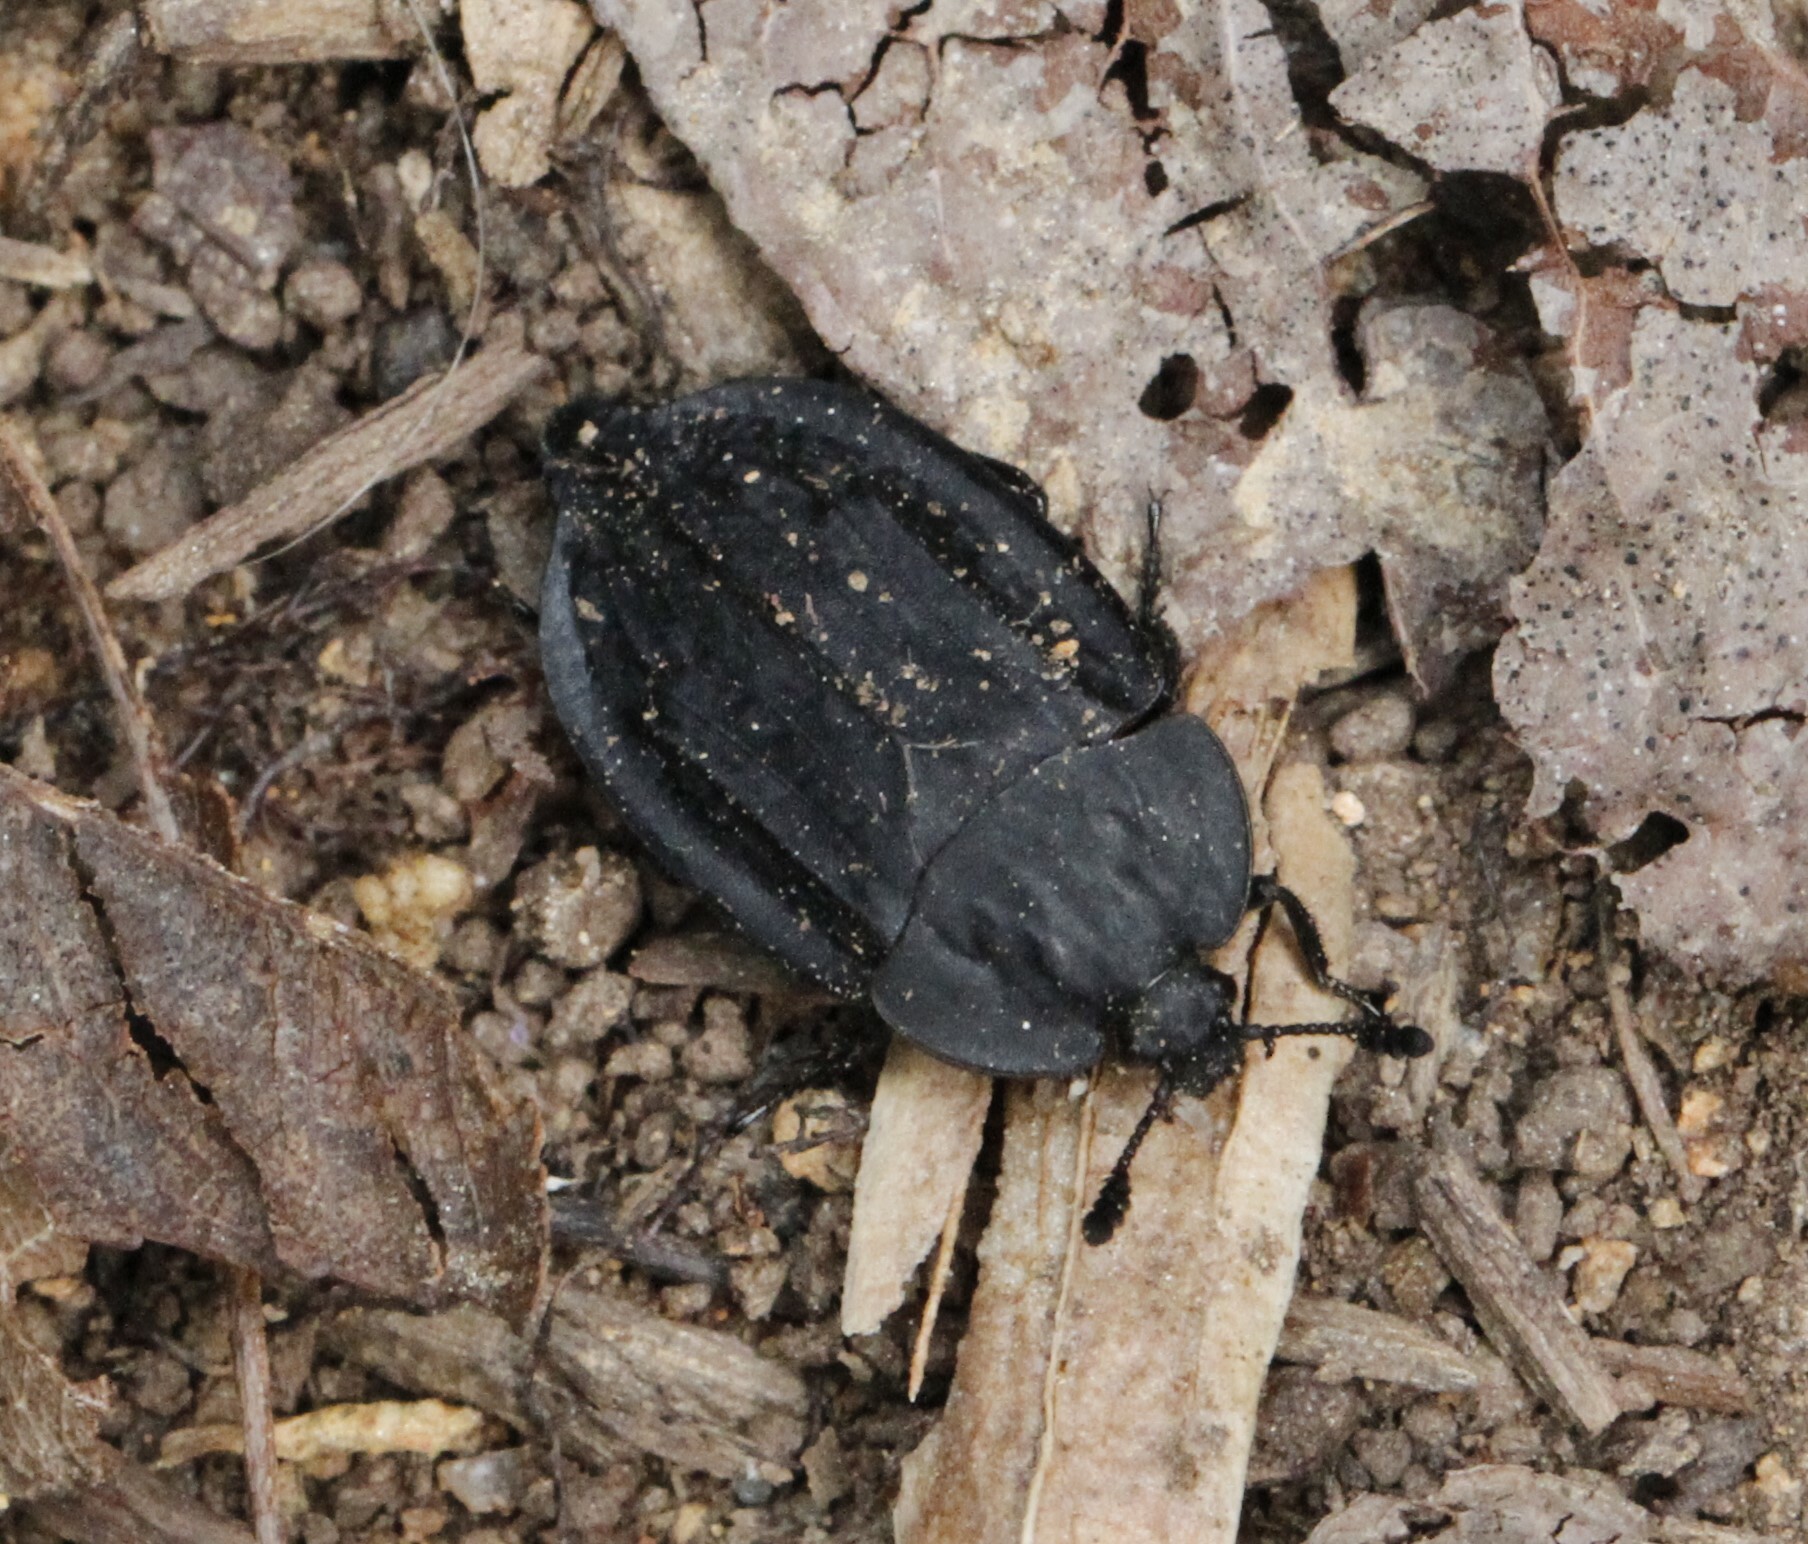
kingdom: Animalia
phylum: Arthropoda
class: Insecta
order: Coleoptera
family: Staphylinidae
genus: Oiceoptoma
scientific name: Oiceoptoma inaequale
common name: Ridged carrion beetle
